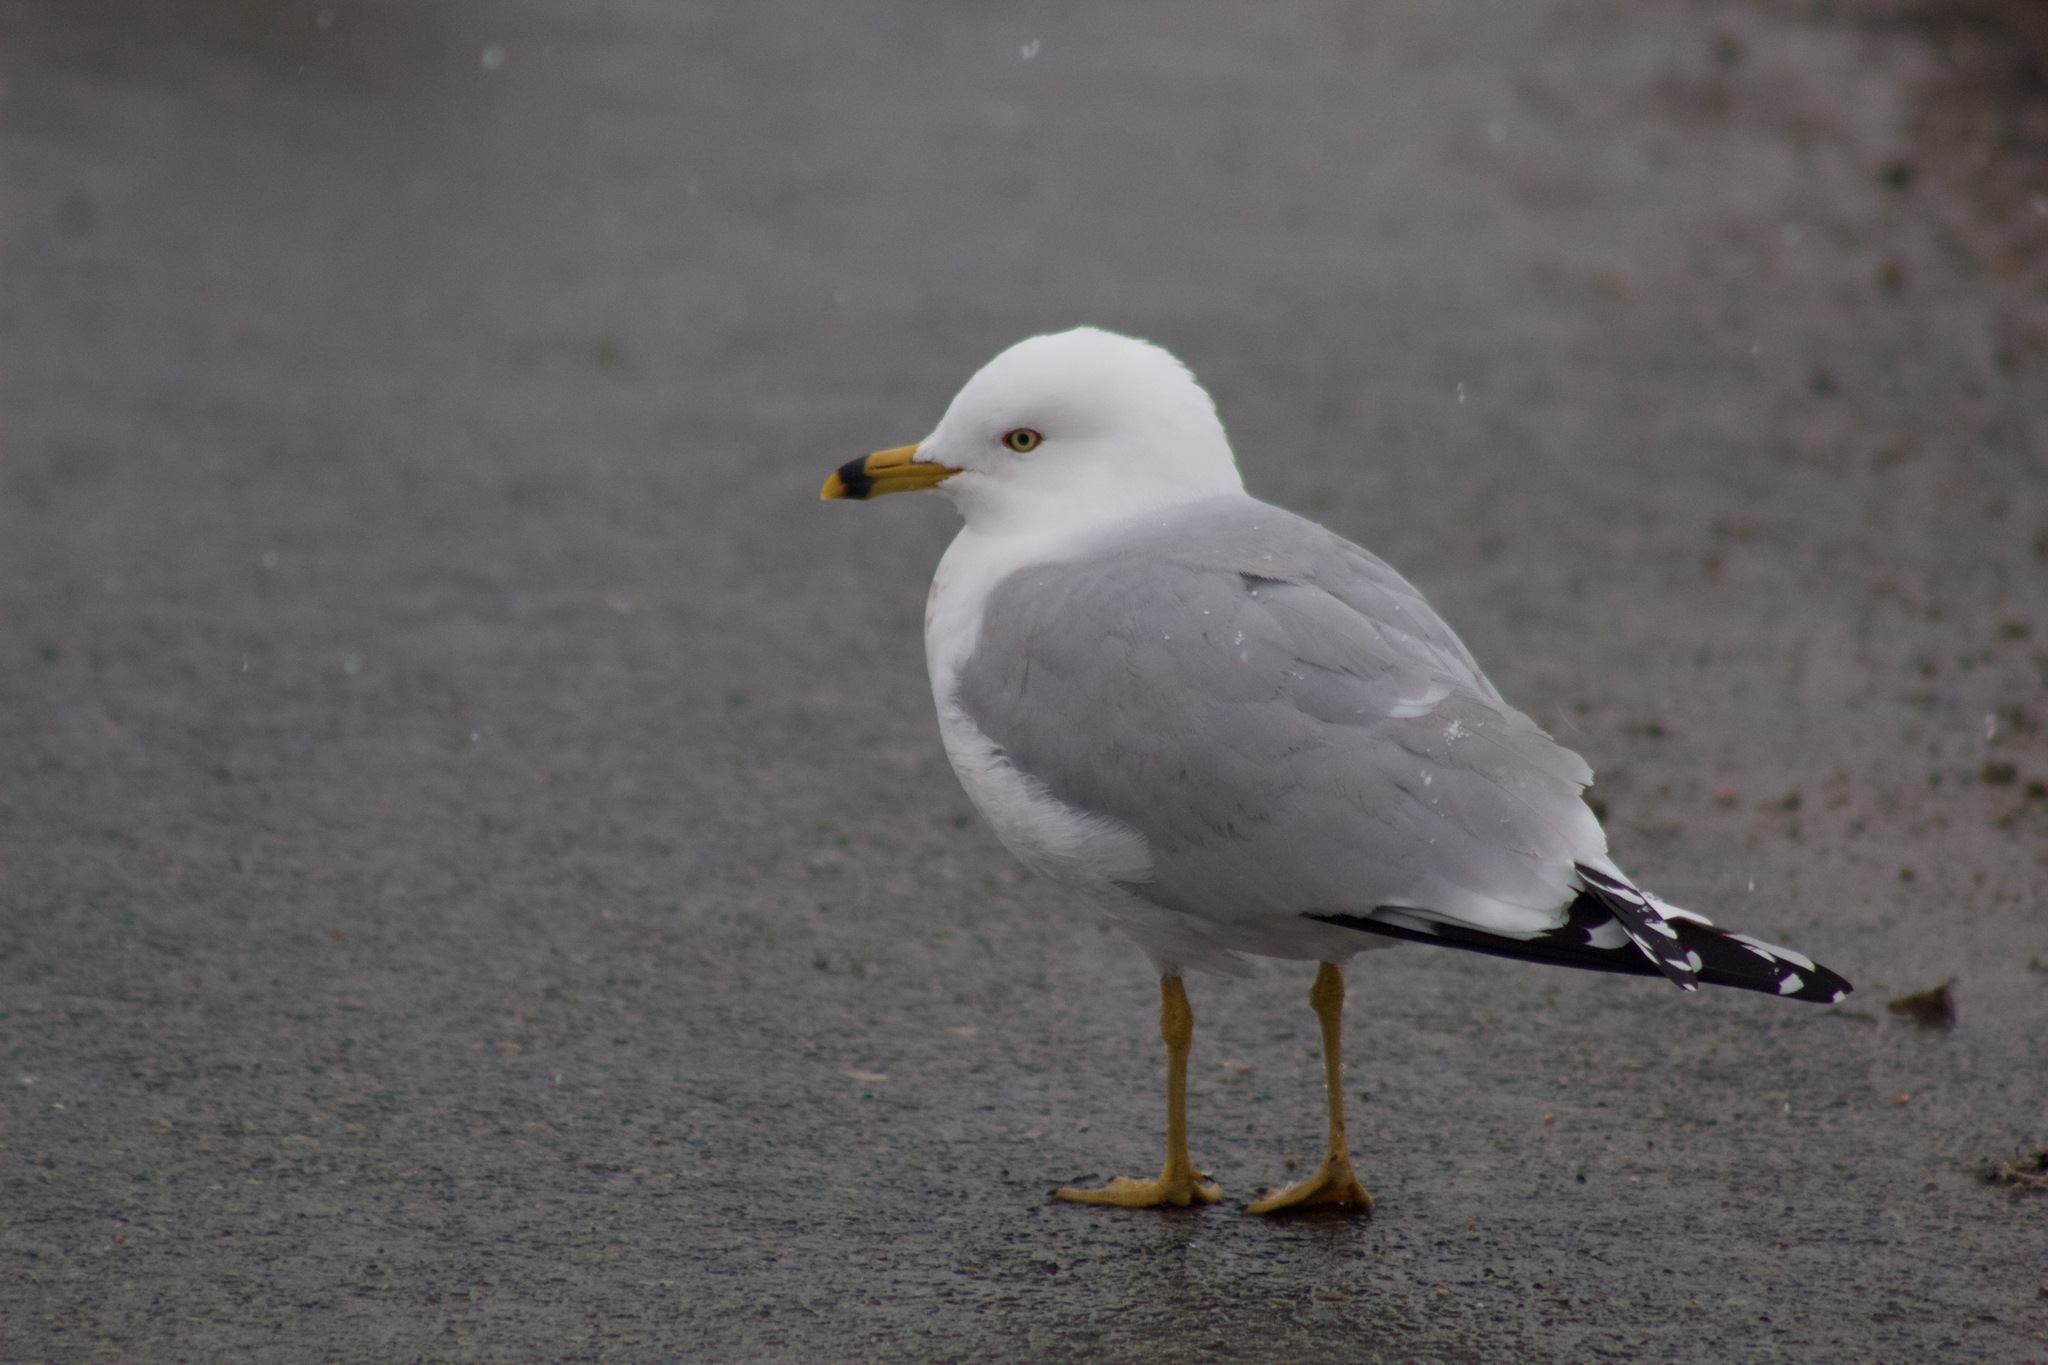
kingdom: Animalia
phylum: Chordata
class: Aves
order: Charadriiformes
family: Laridae
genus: Larus
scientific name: Larus delawarensis
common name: Ring-billed gull
